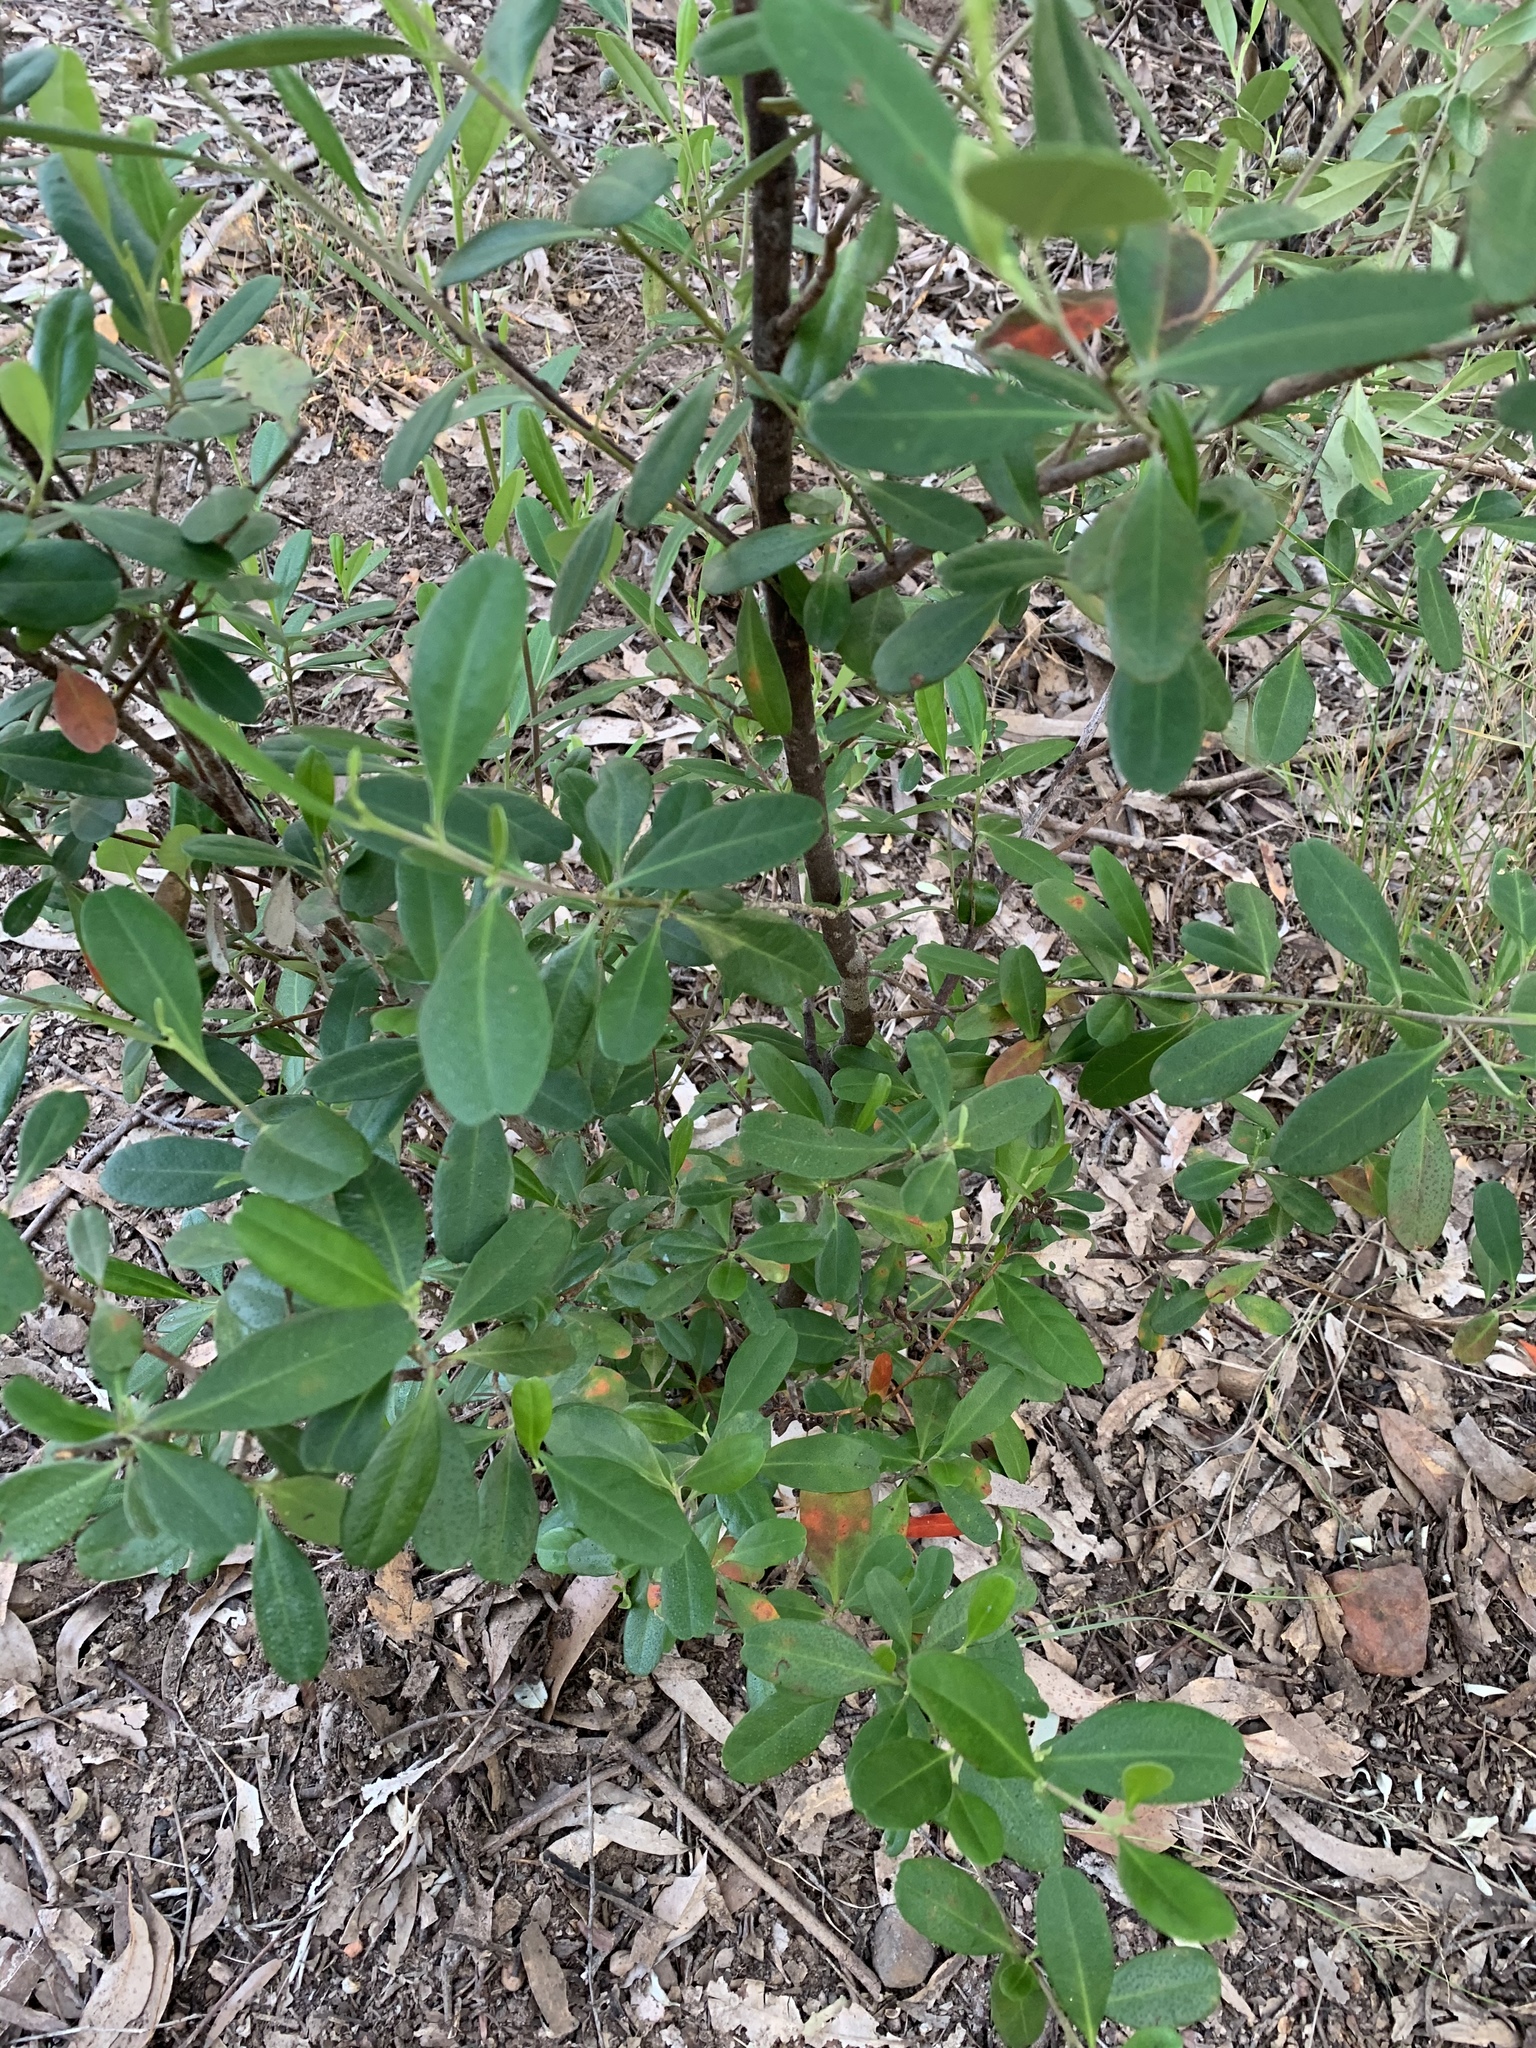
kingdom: Plantae
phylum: Tracheophyta
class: Magnoliopsida
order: Malpighiales
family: Euphorbiaceae
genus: Beyeria
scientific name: Beyeria viscosa
